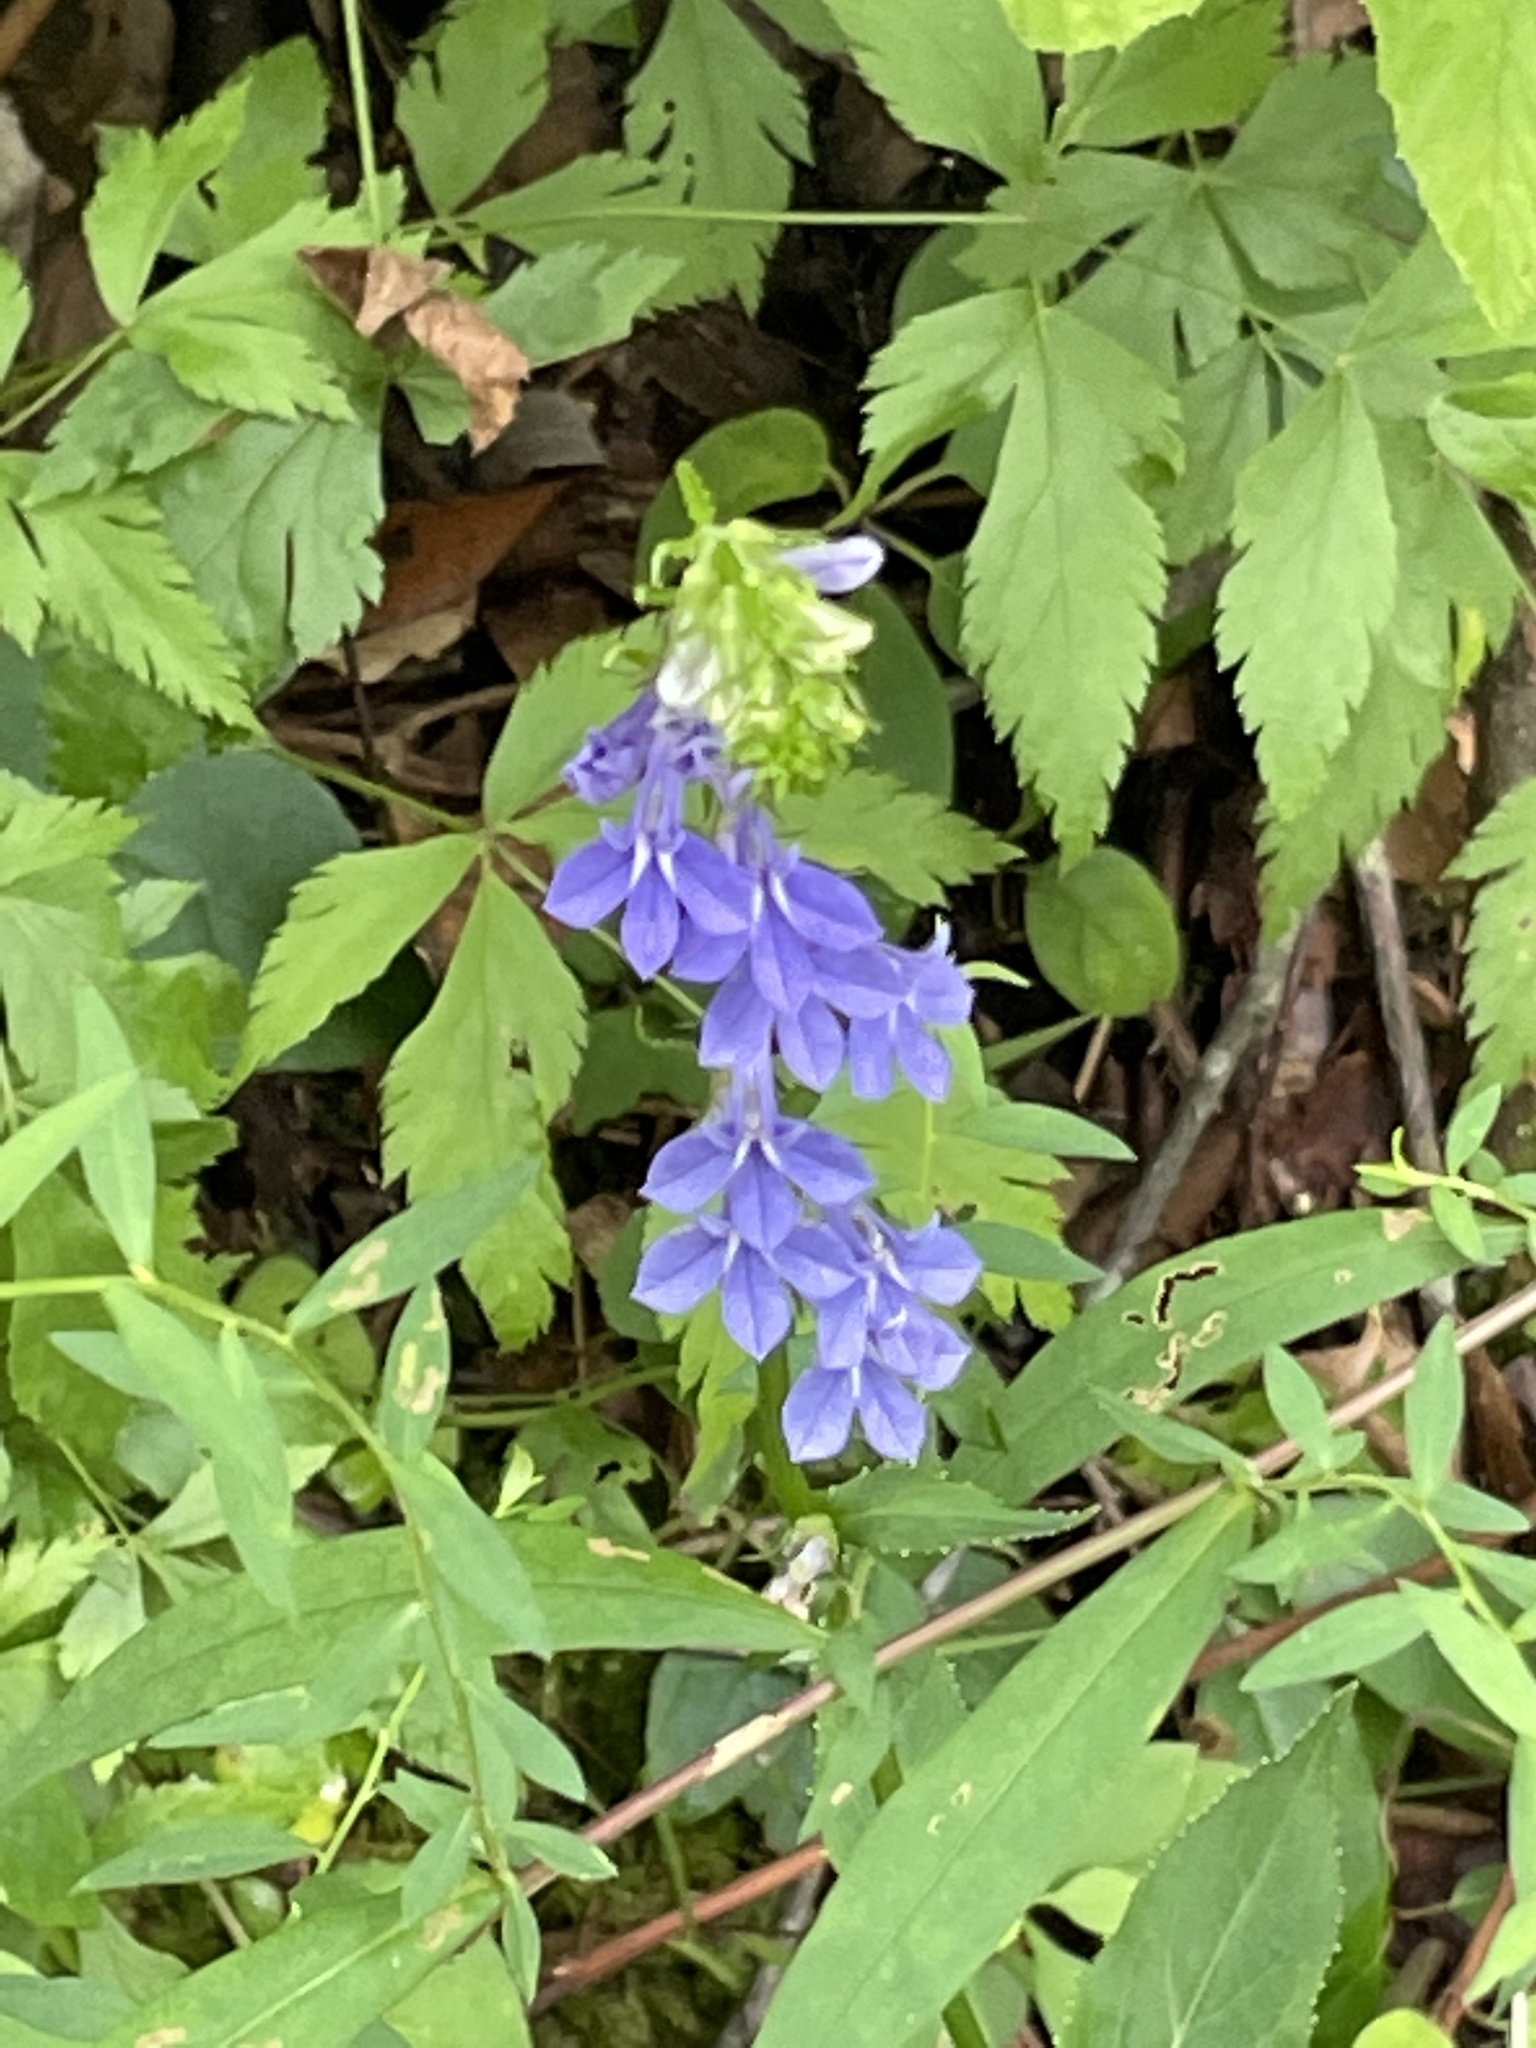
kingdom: Plantae
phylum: Tracheophyta
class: Magnoliopsida
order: Asterales
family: Campanulaceae
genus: Lobelia
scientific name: Lobelia amoena
